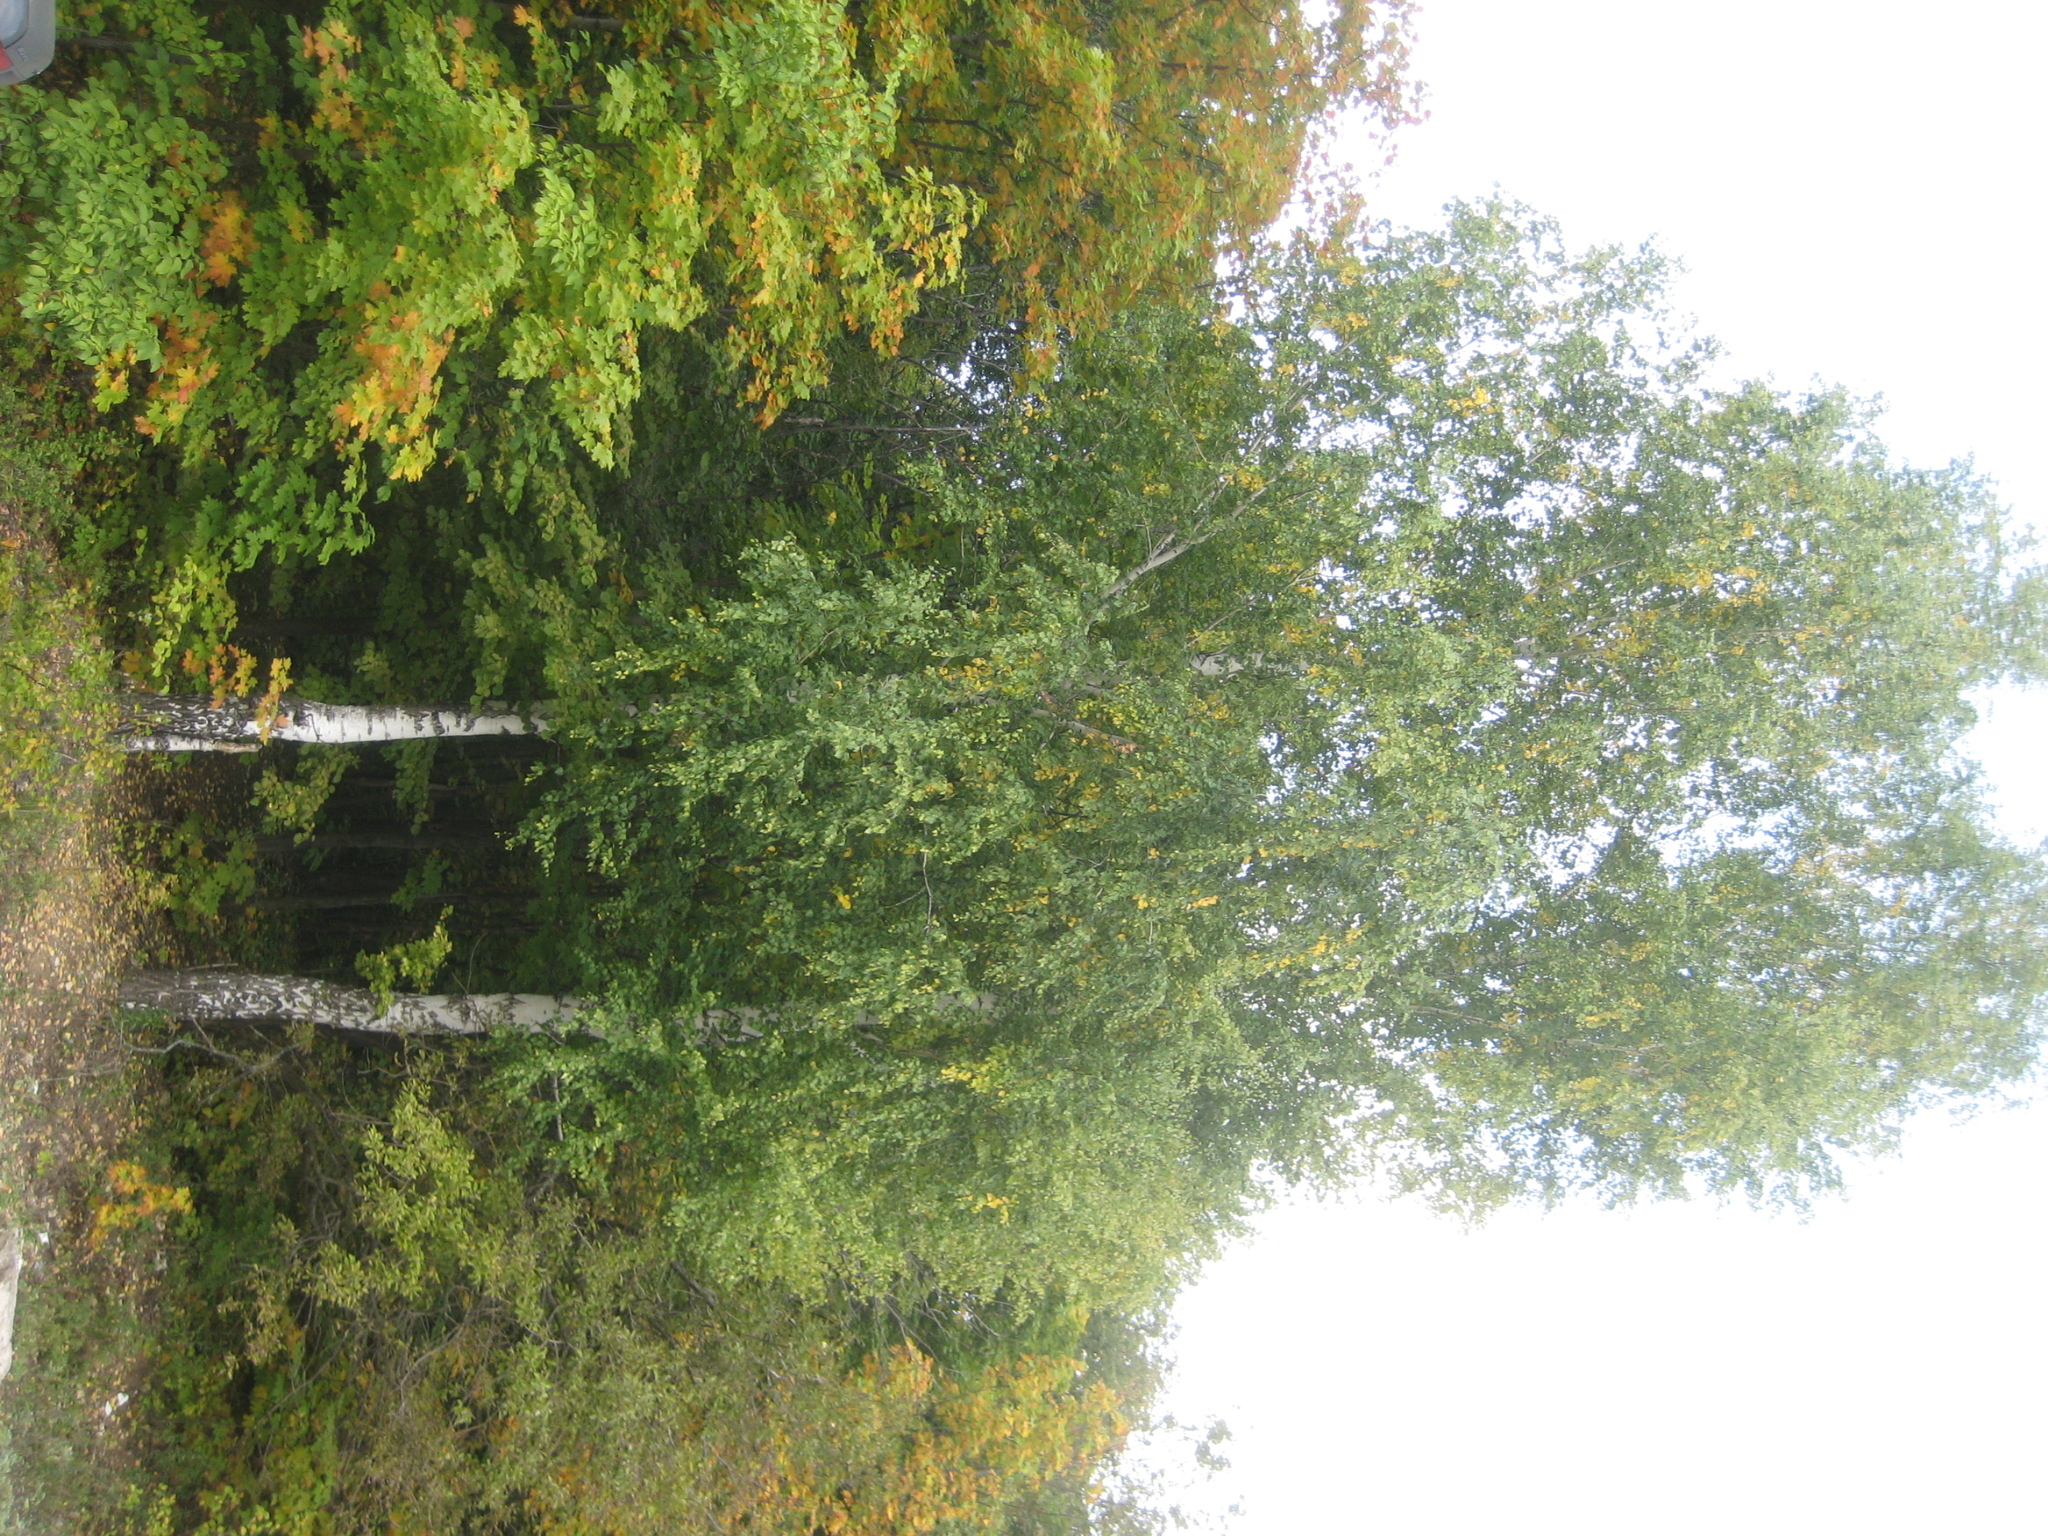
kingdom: Plantae
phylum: Tracheophyta
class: Magnoliopsida
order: Fagales
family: Betulaceae
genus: Betula
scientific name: Betula pendula
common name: Silver birch
